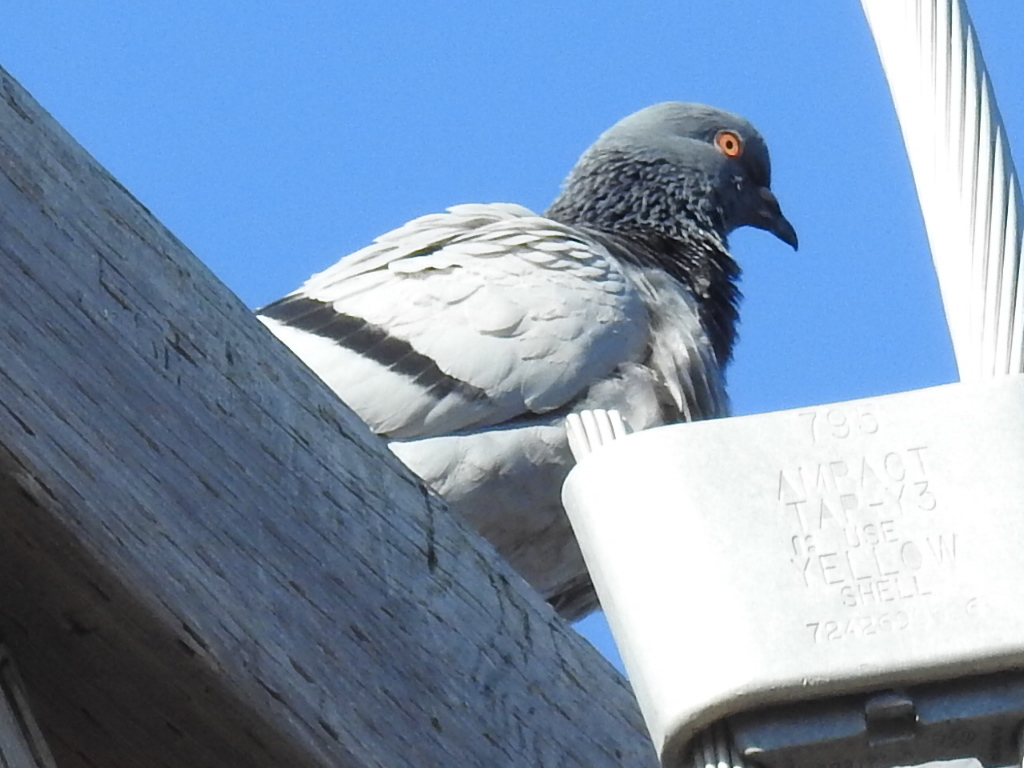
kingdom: Animalia
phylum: Chordata
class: Aves
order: Columbiformes
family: Columbidae
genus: Columba
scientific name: Columba livia
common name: Rock pigeon
